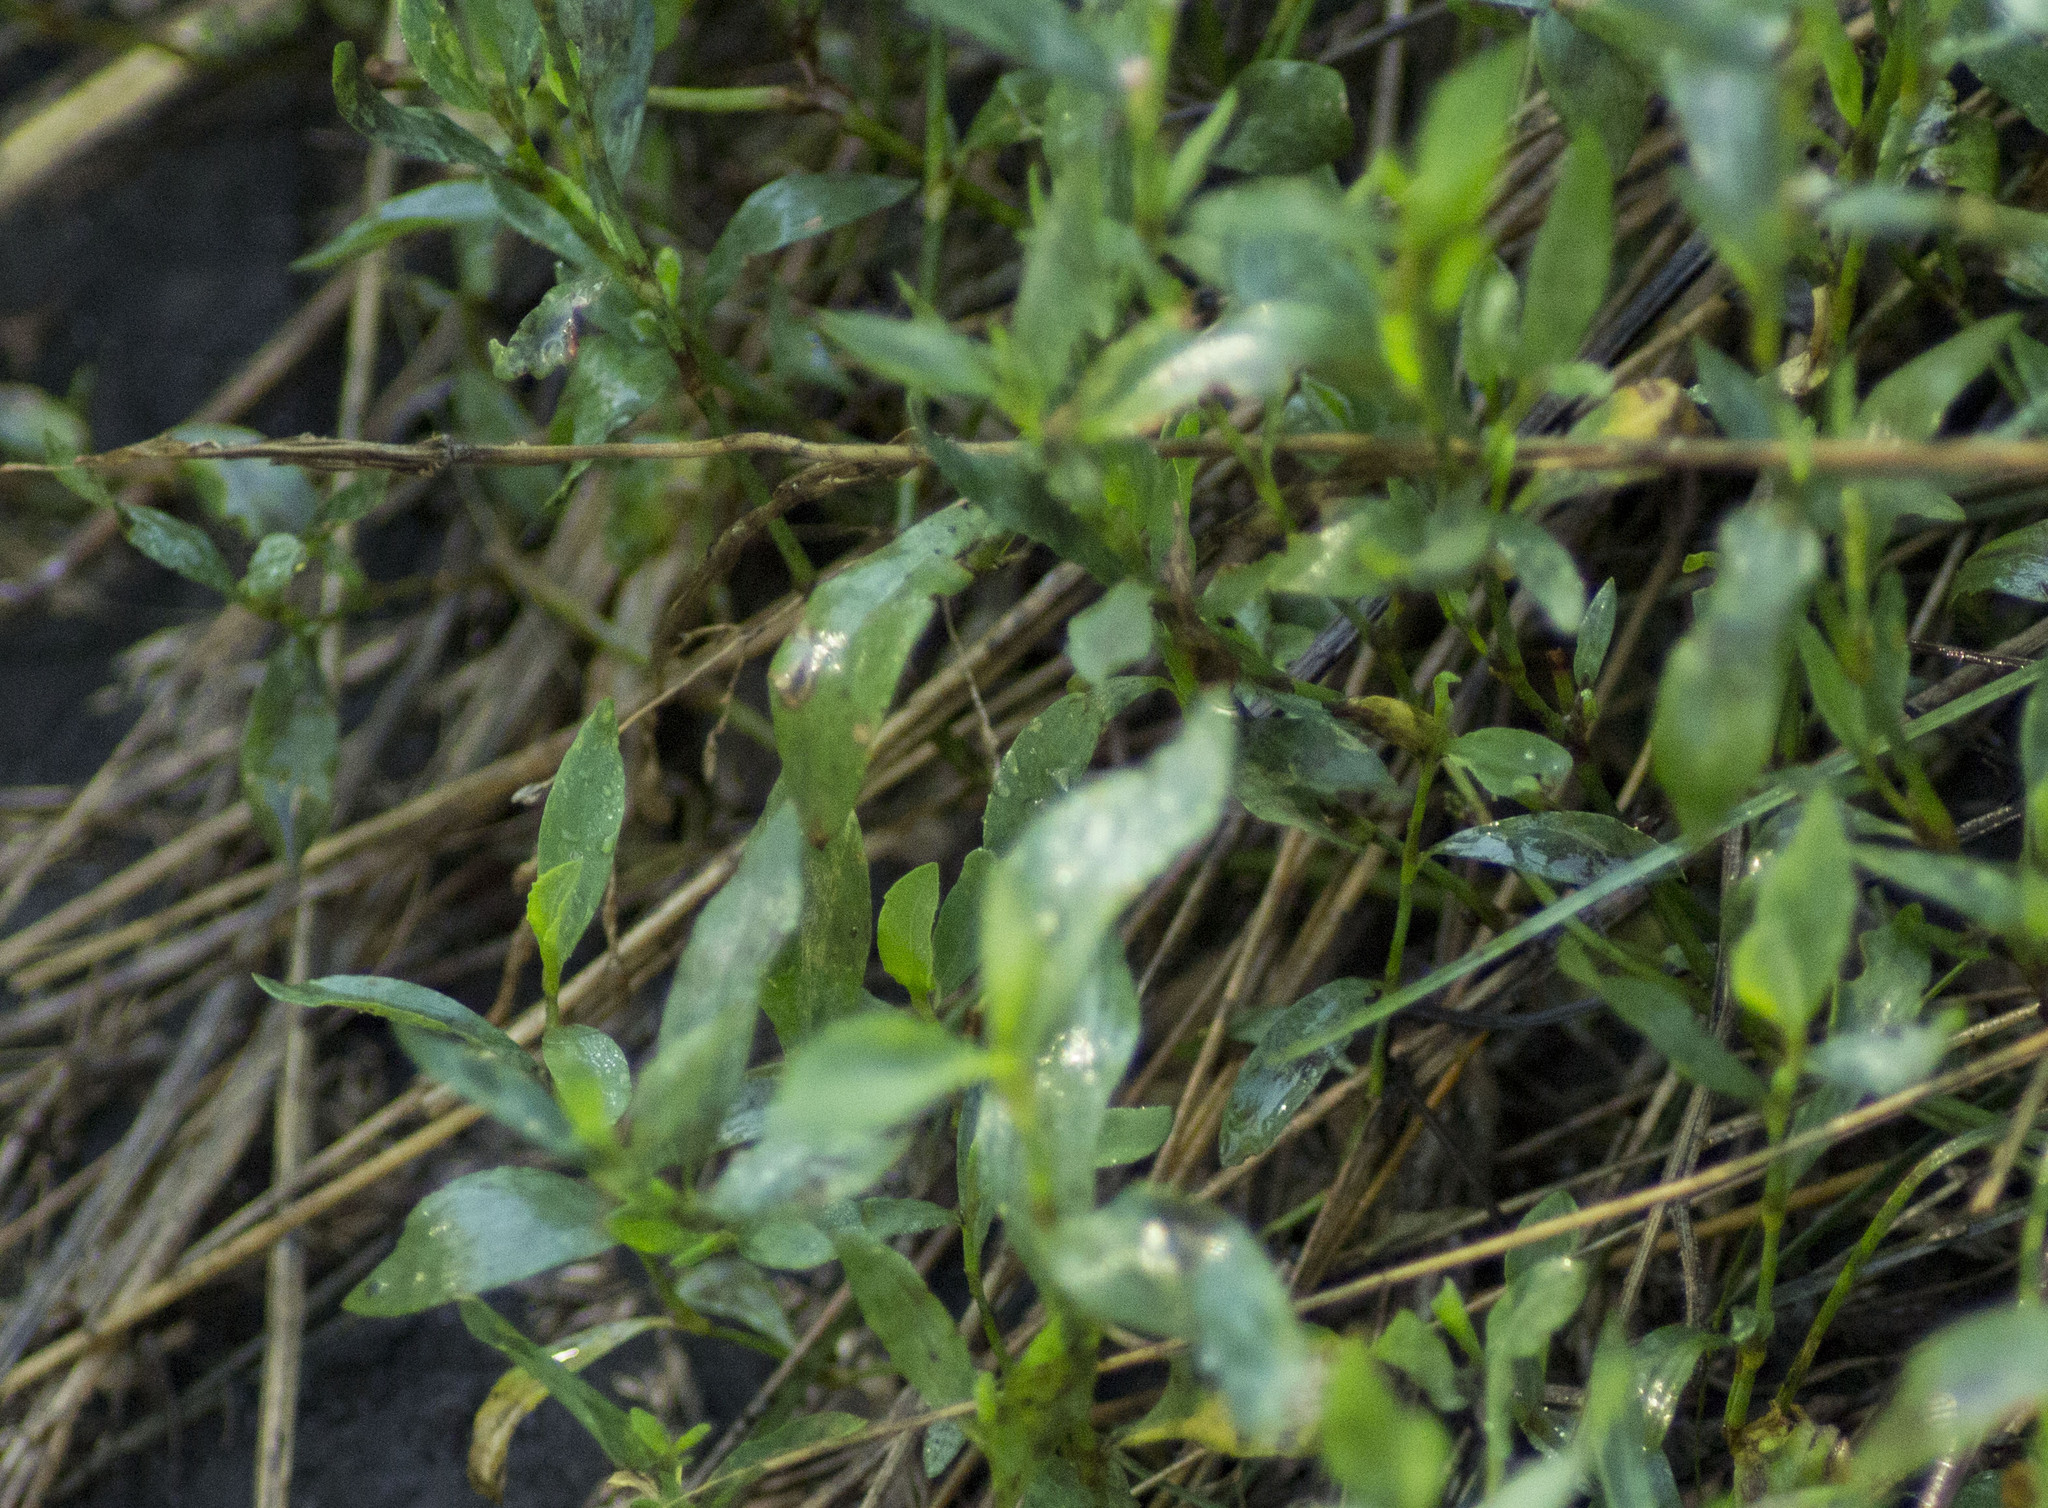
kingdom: Plantae
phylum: Tracheophyta
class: Magnoliopsida
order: Caryophyllales
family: Polygonaceae
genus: Polygonum
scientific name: Polygonum
